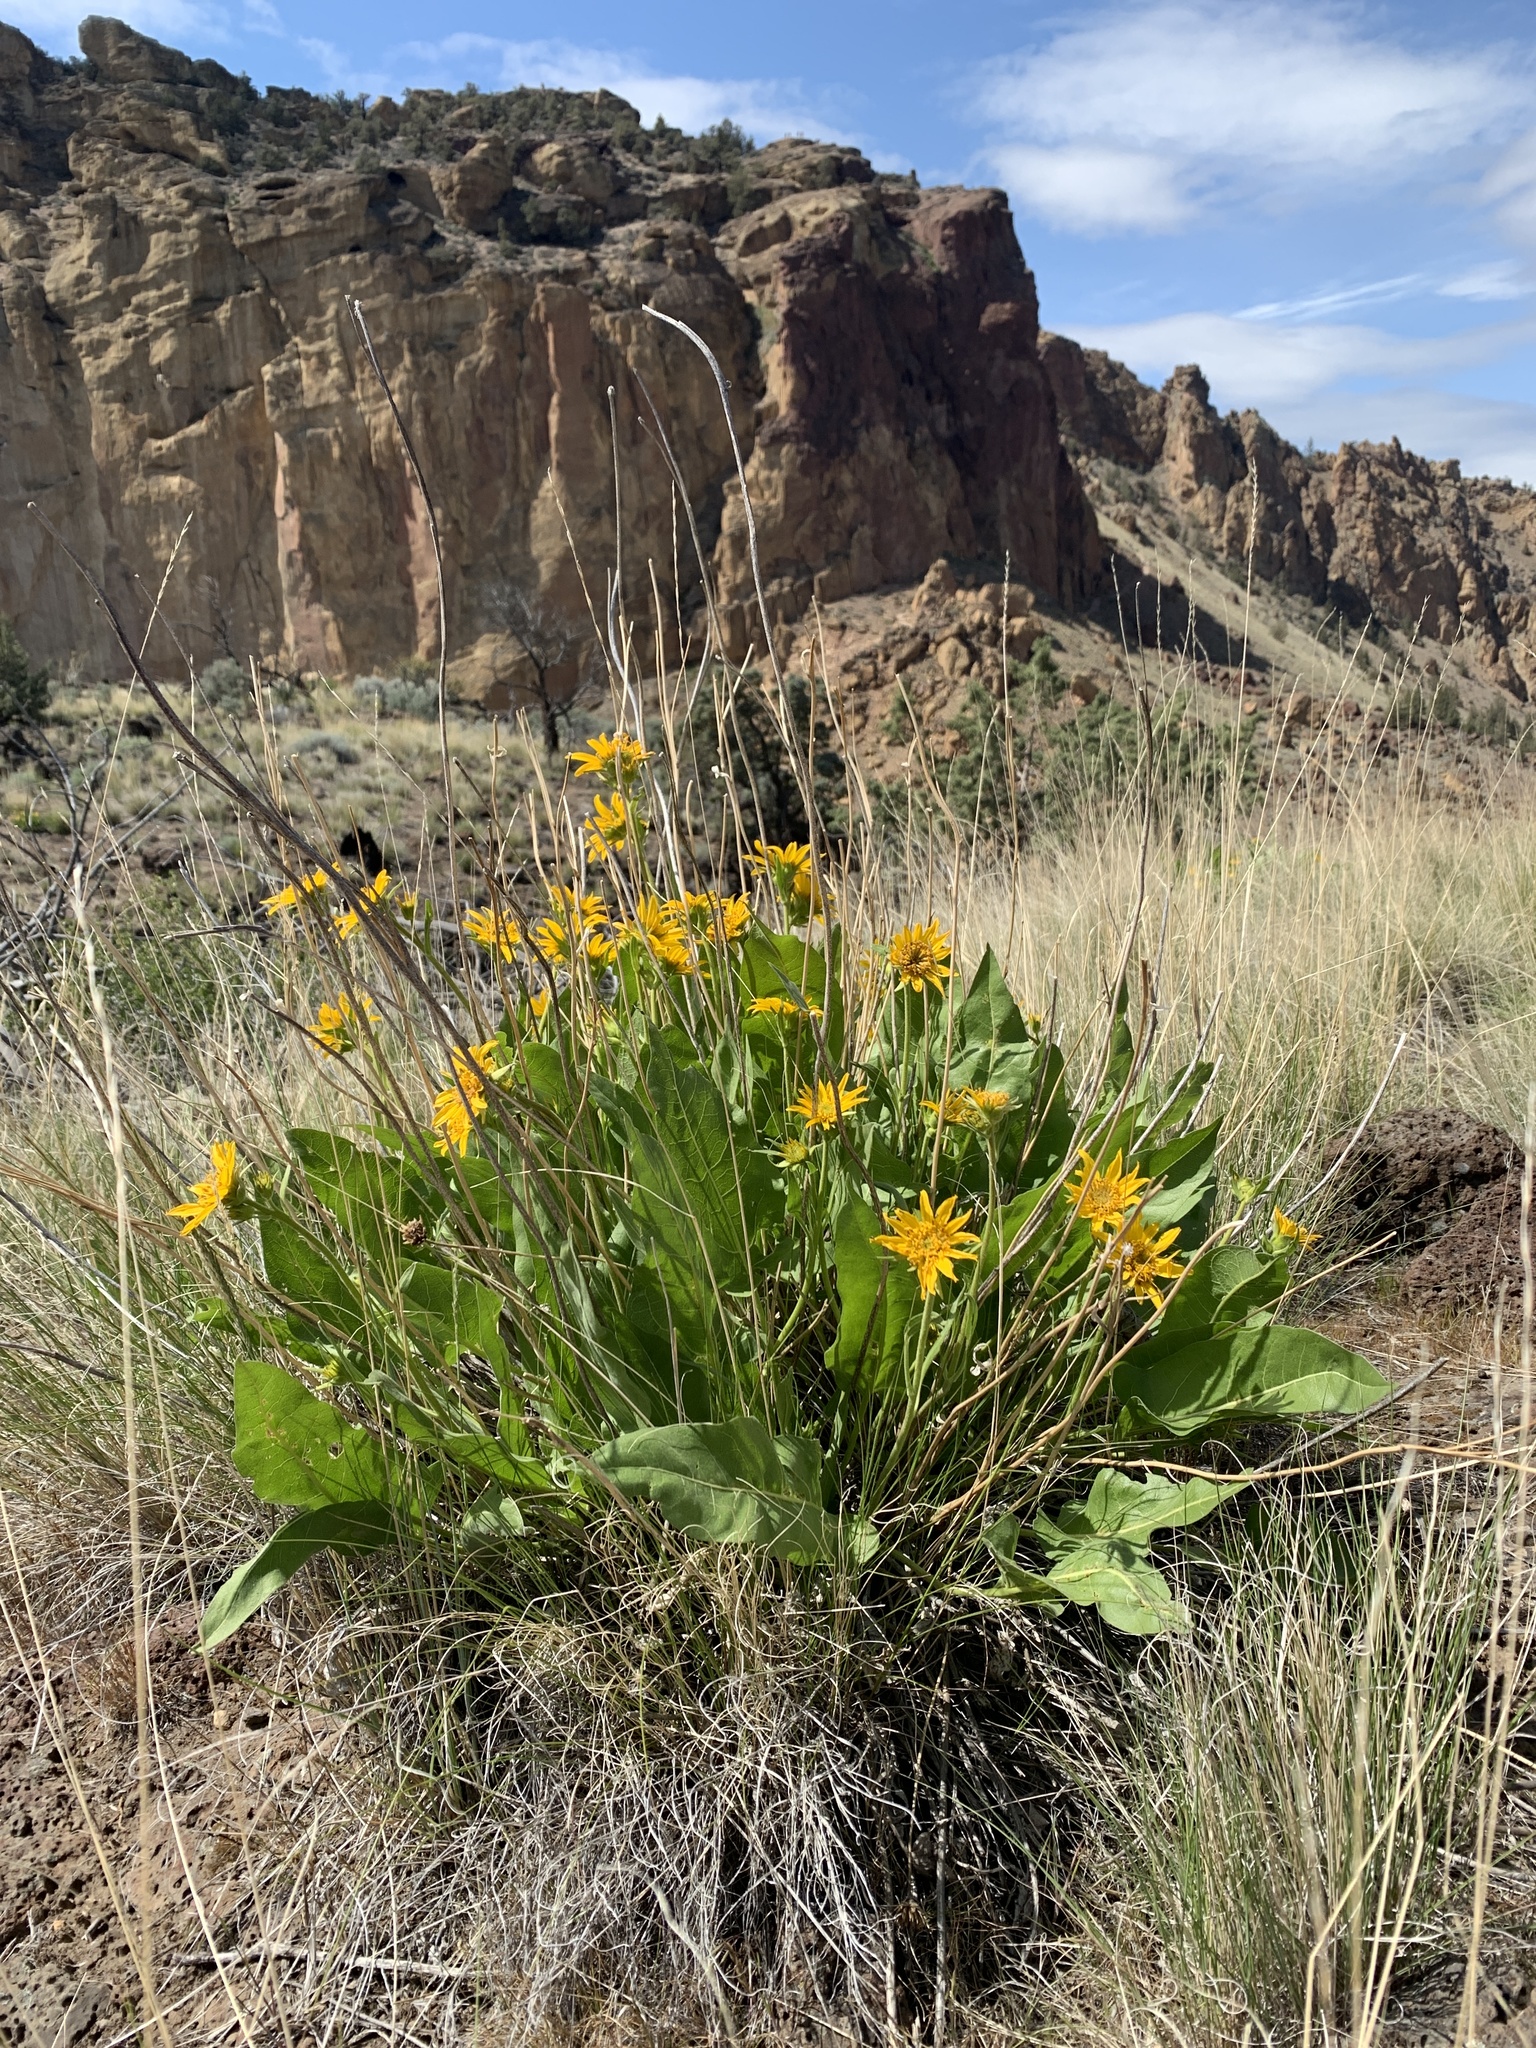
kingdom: Plantae
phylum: Tracheophyta
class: Magnoliopsida
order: Asterales
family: Asteraceae
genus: Balsamorhiza
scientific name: Balsamorhiza careyana
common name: Carey's balsamroot
